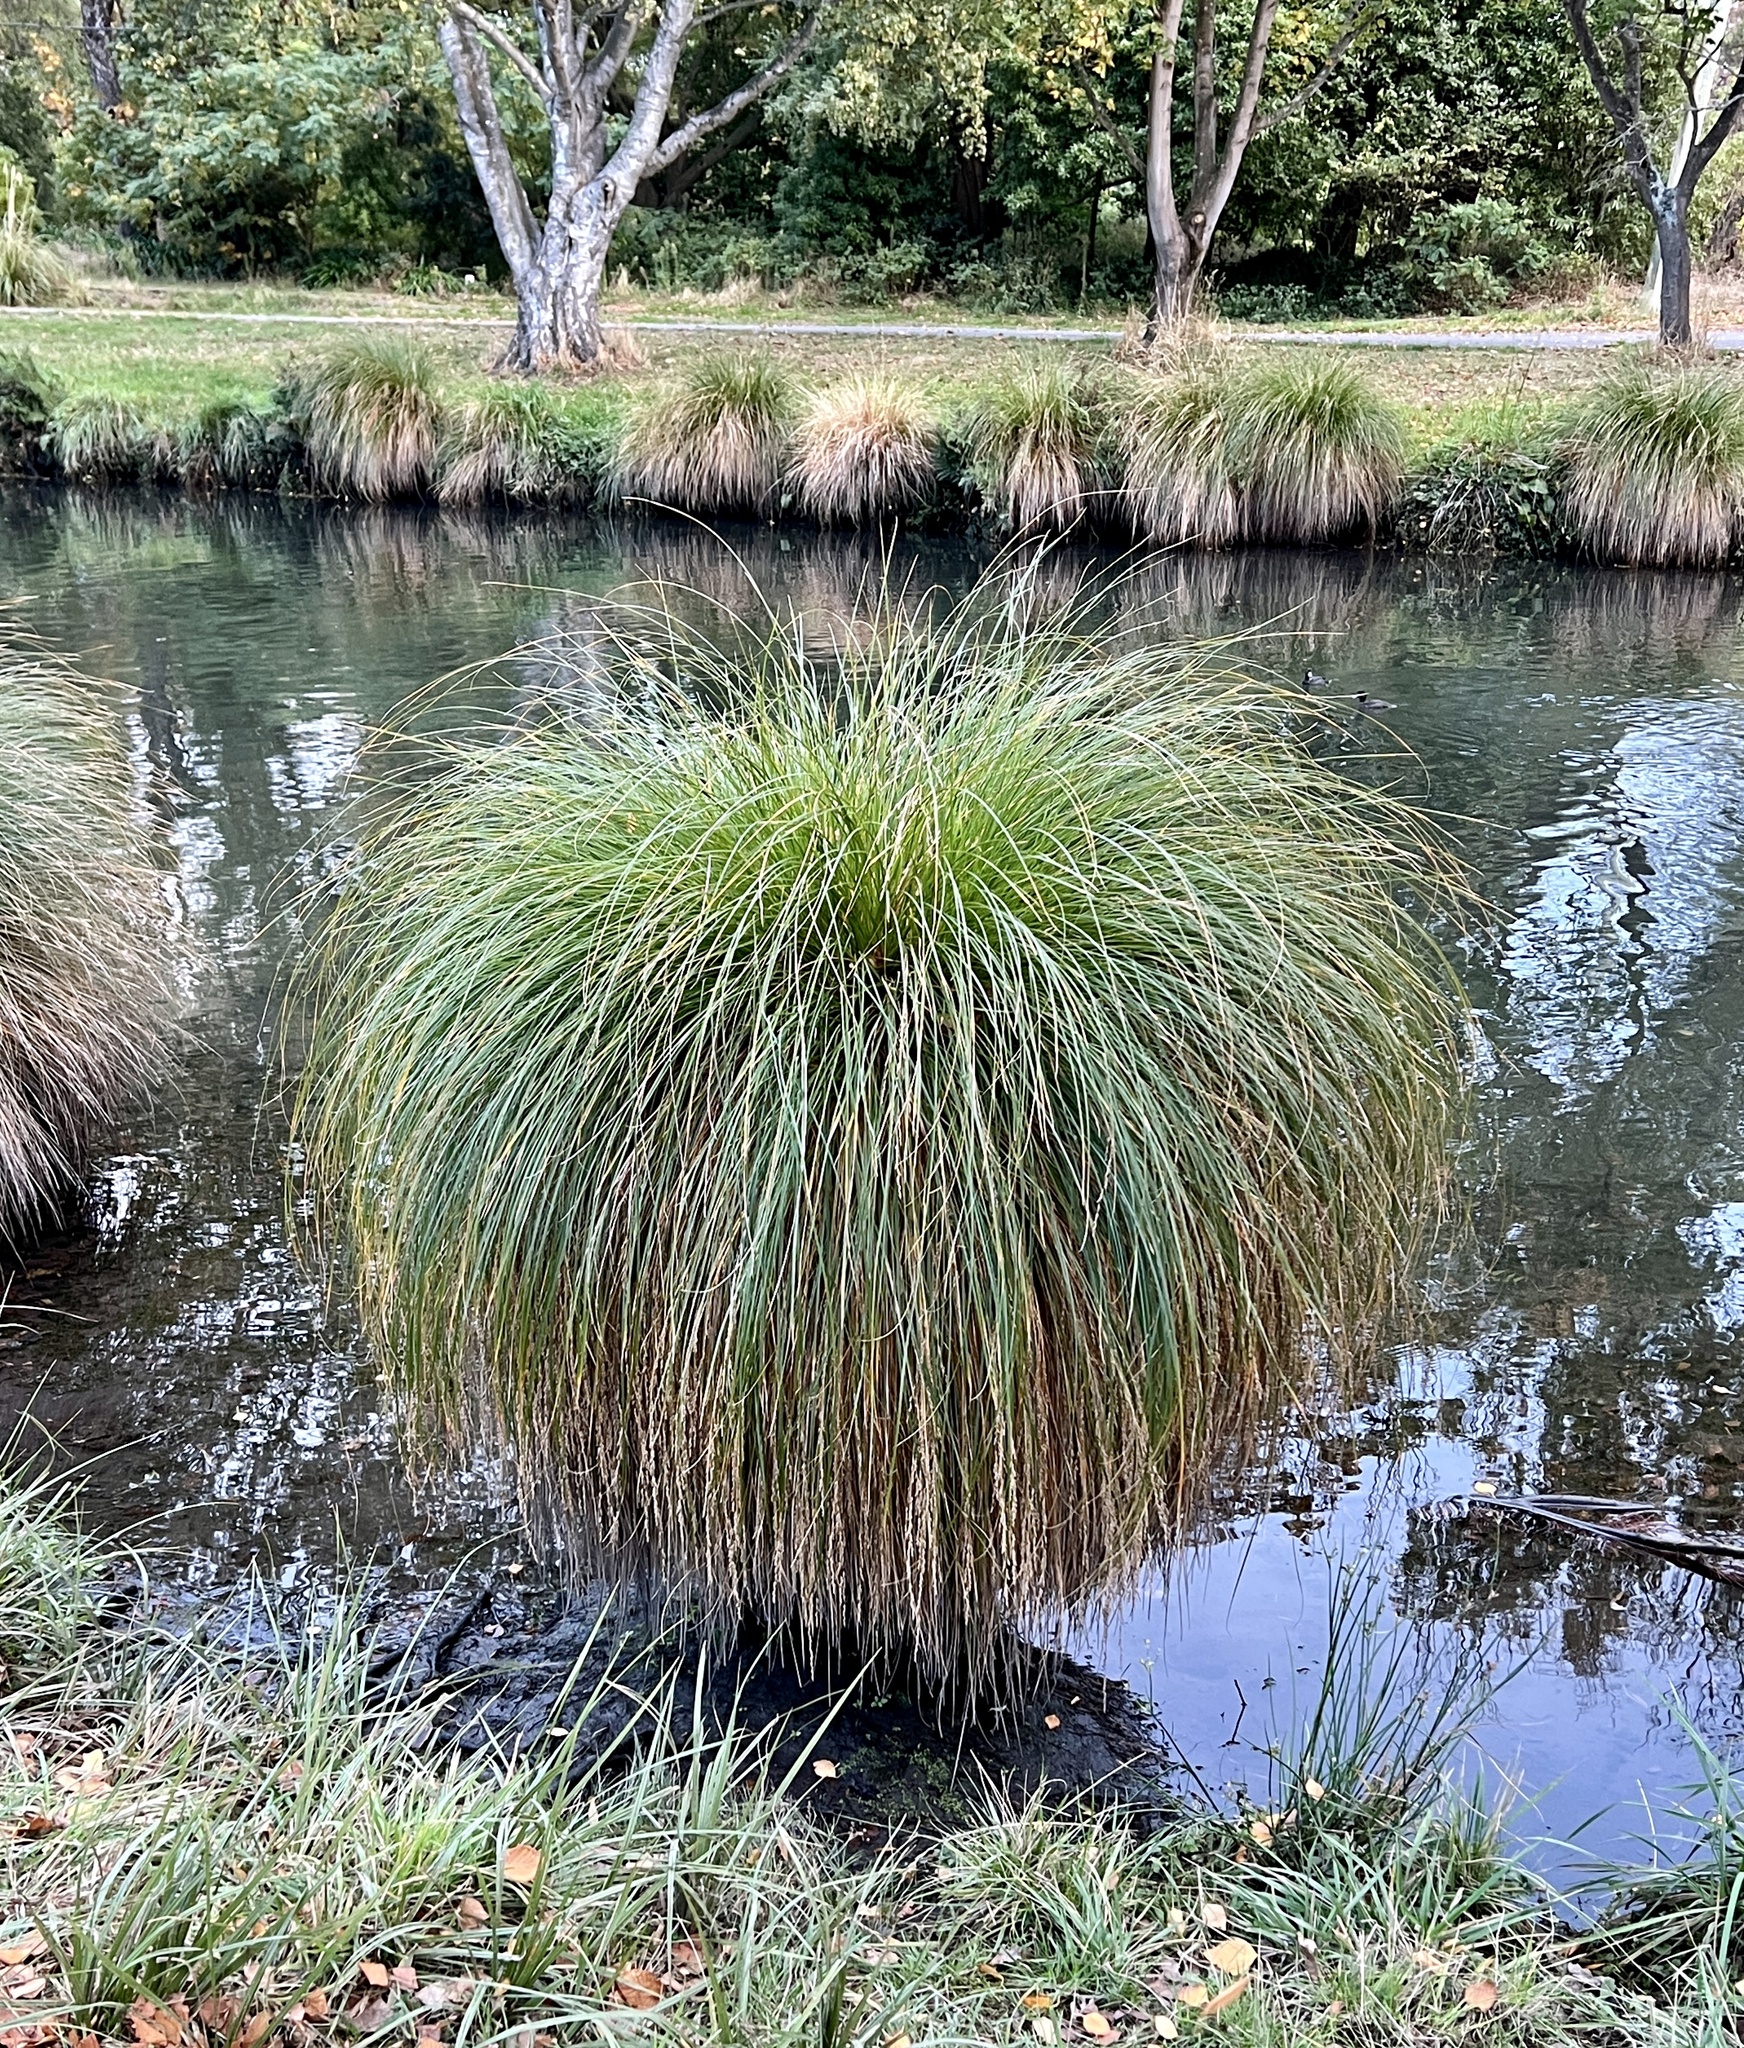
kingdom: Plantae
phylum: Tracheophyta
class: Liliopsida
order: Poales
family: Cyperaceae
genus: Carex
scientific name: Carex secta
